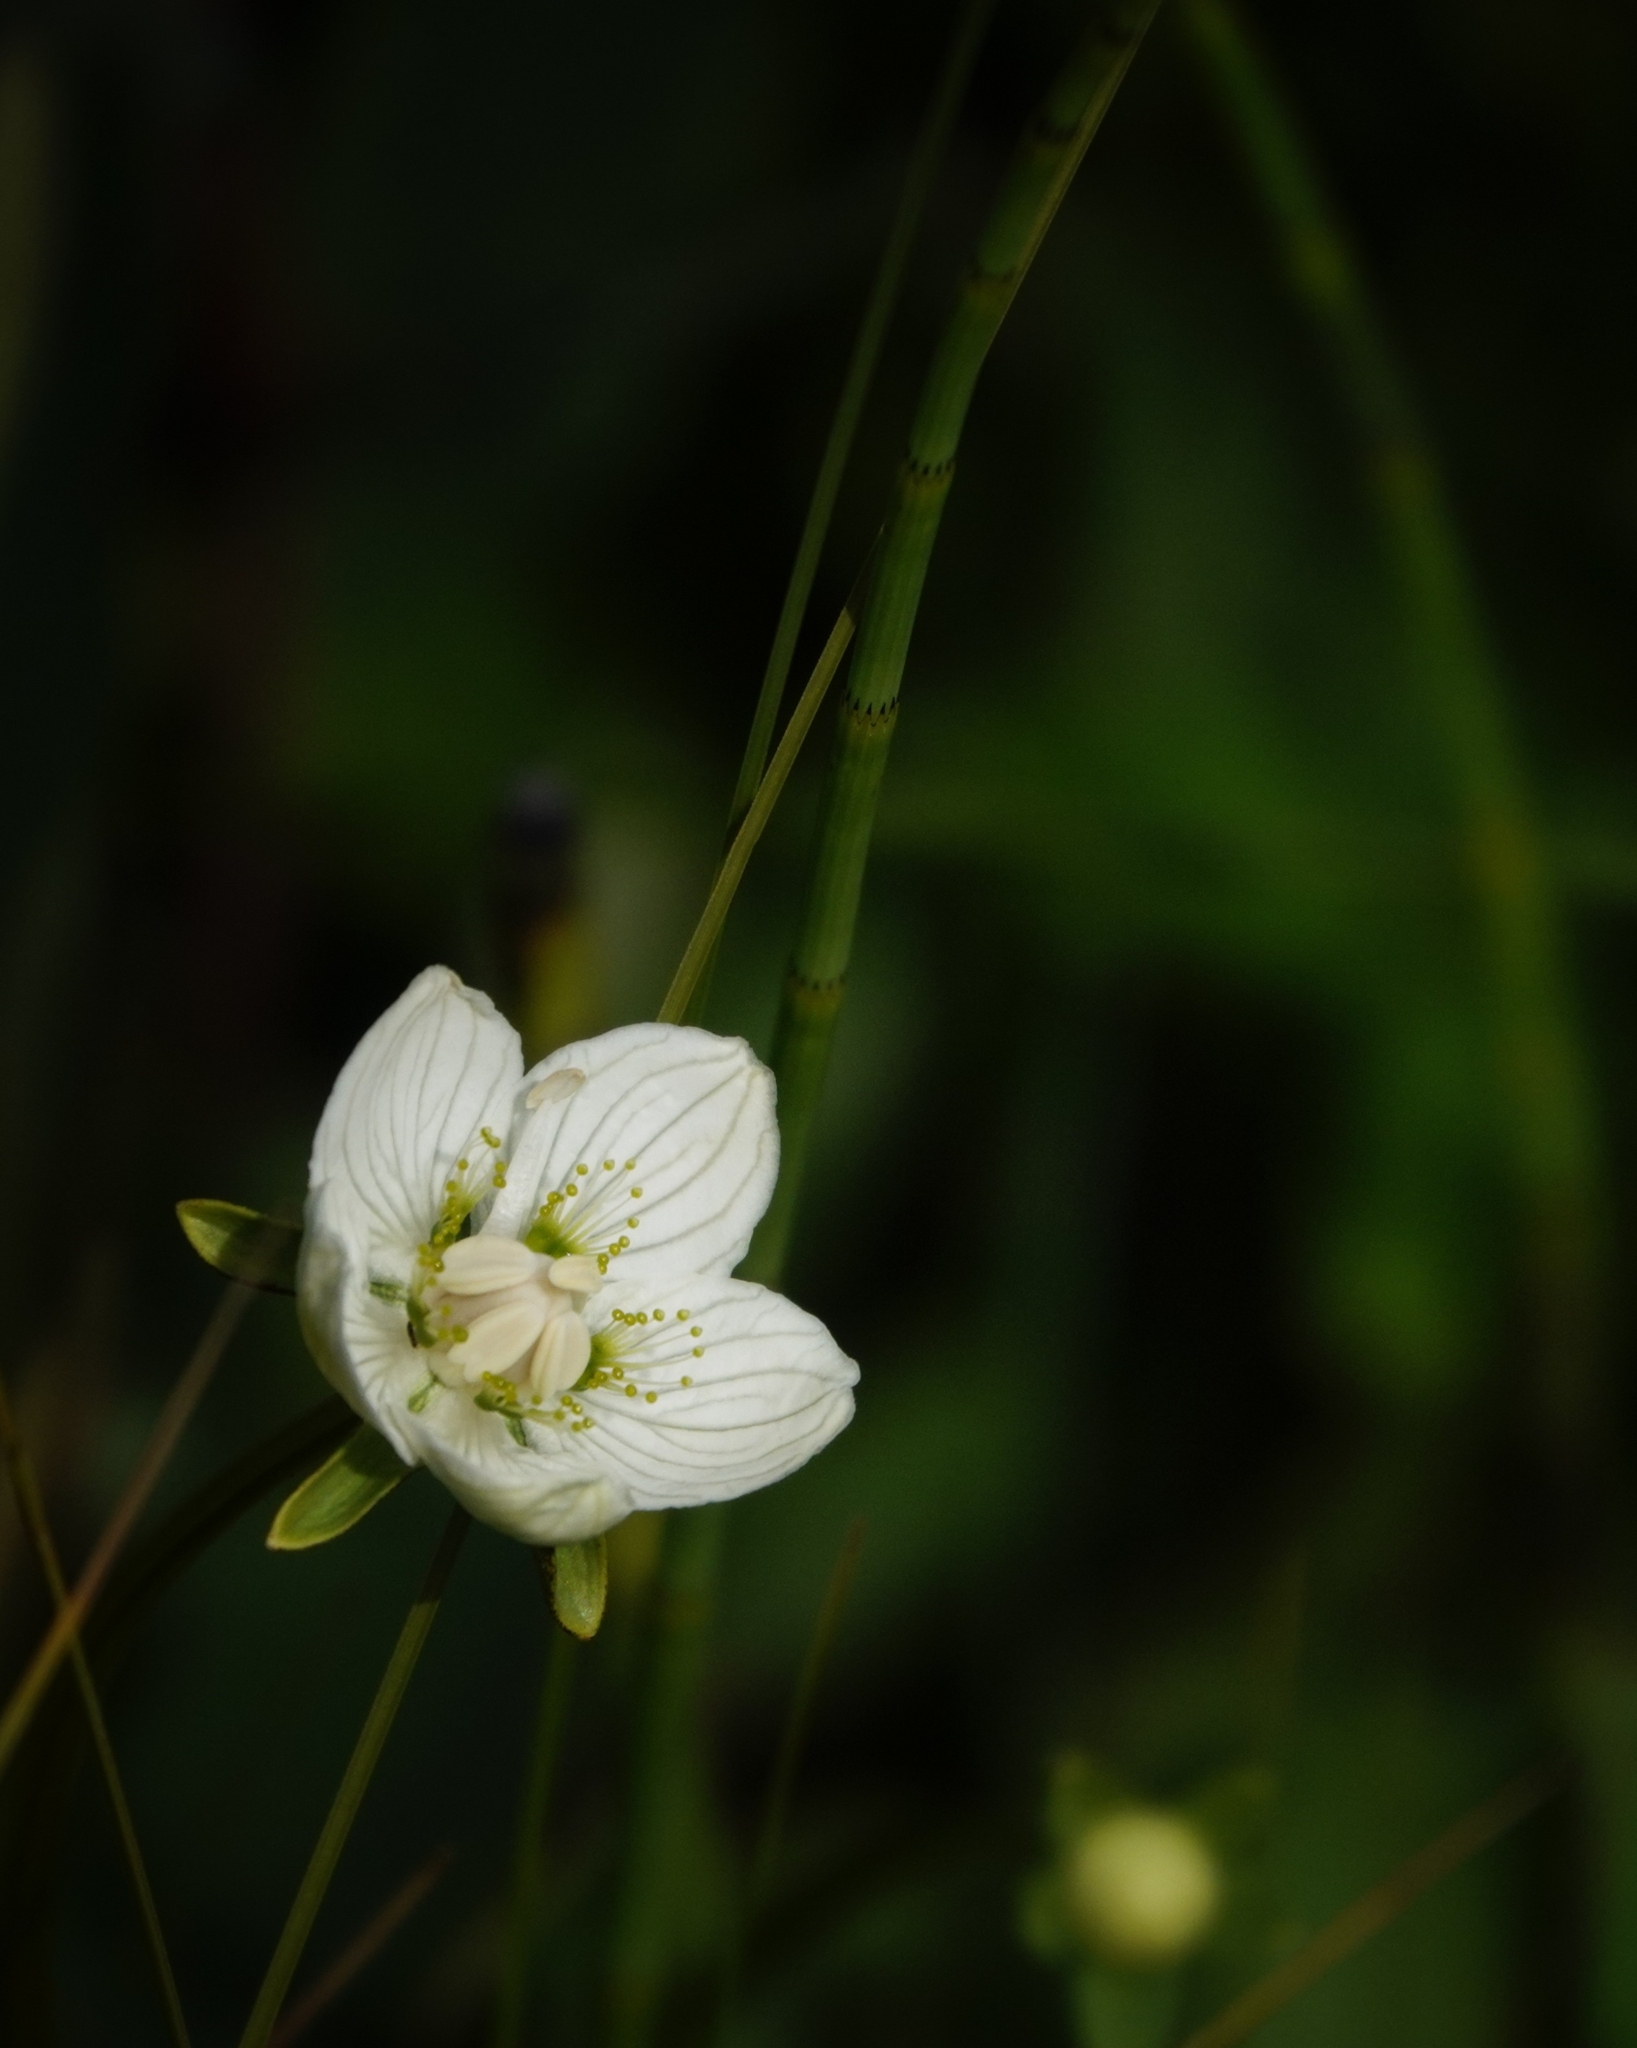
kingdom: Plantae
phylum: Tracheophyta
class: Magnoliopsida
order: Celastrales
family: Parnassiaceae
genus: Parnassia
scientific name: Parnassia palustris
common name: Grass-of-parnassus
